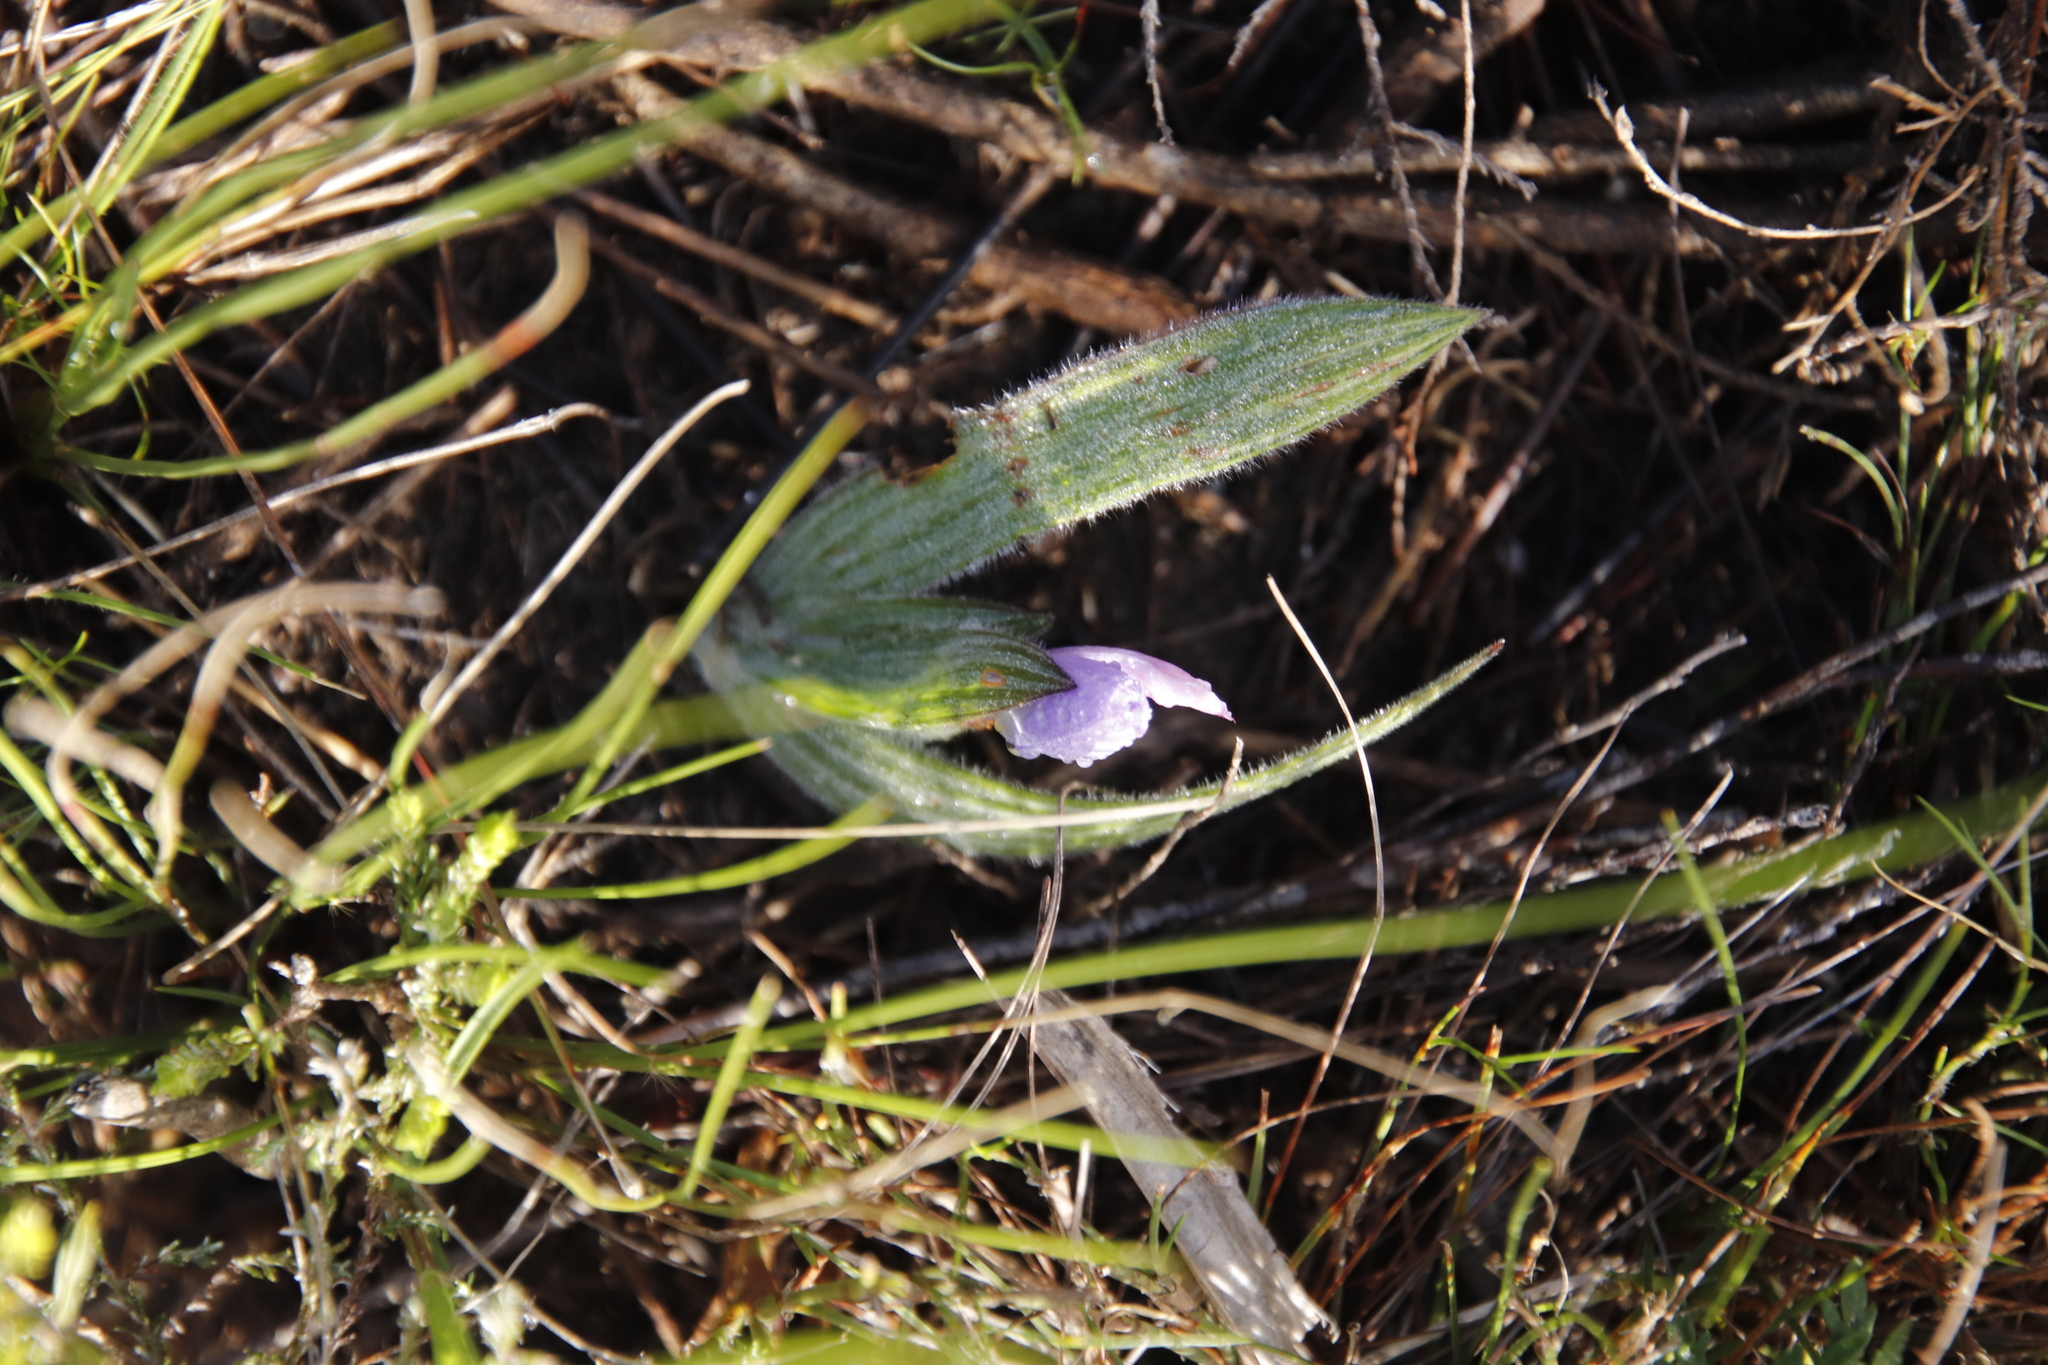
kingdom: Plantae
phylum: Tracheophyta
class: Liliopsida
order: Asparagales
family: Iridaceae
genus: Babiana
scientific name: Babiana villosula
